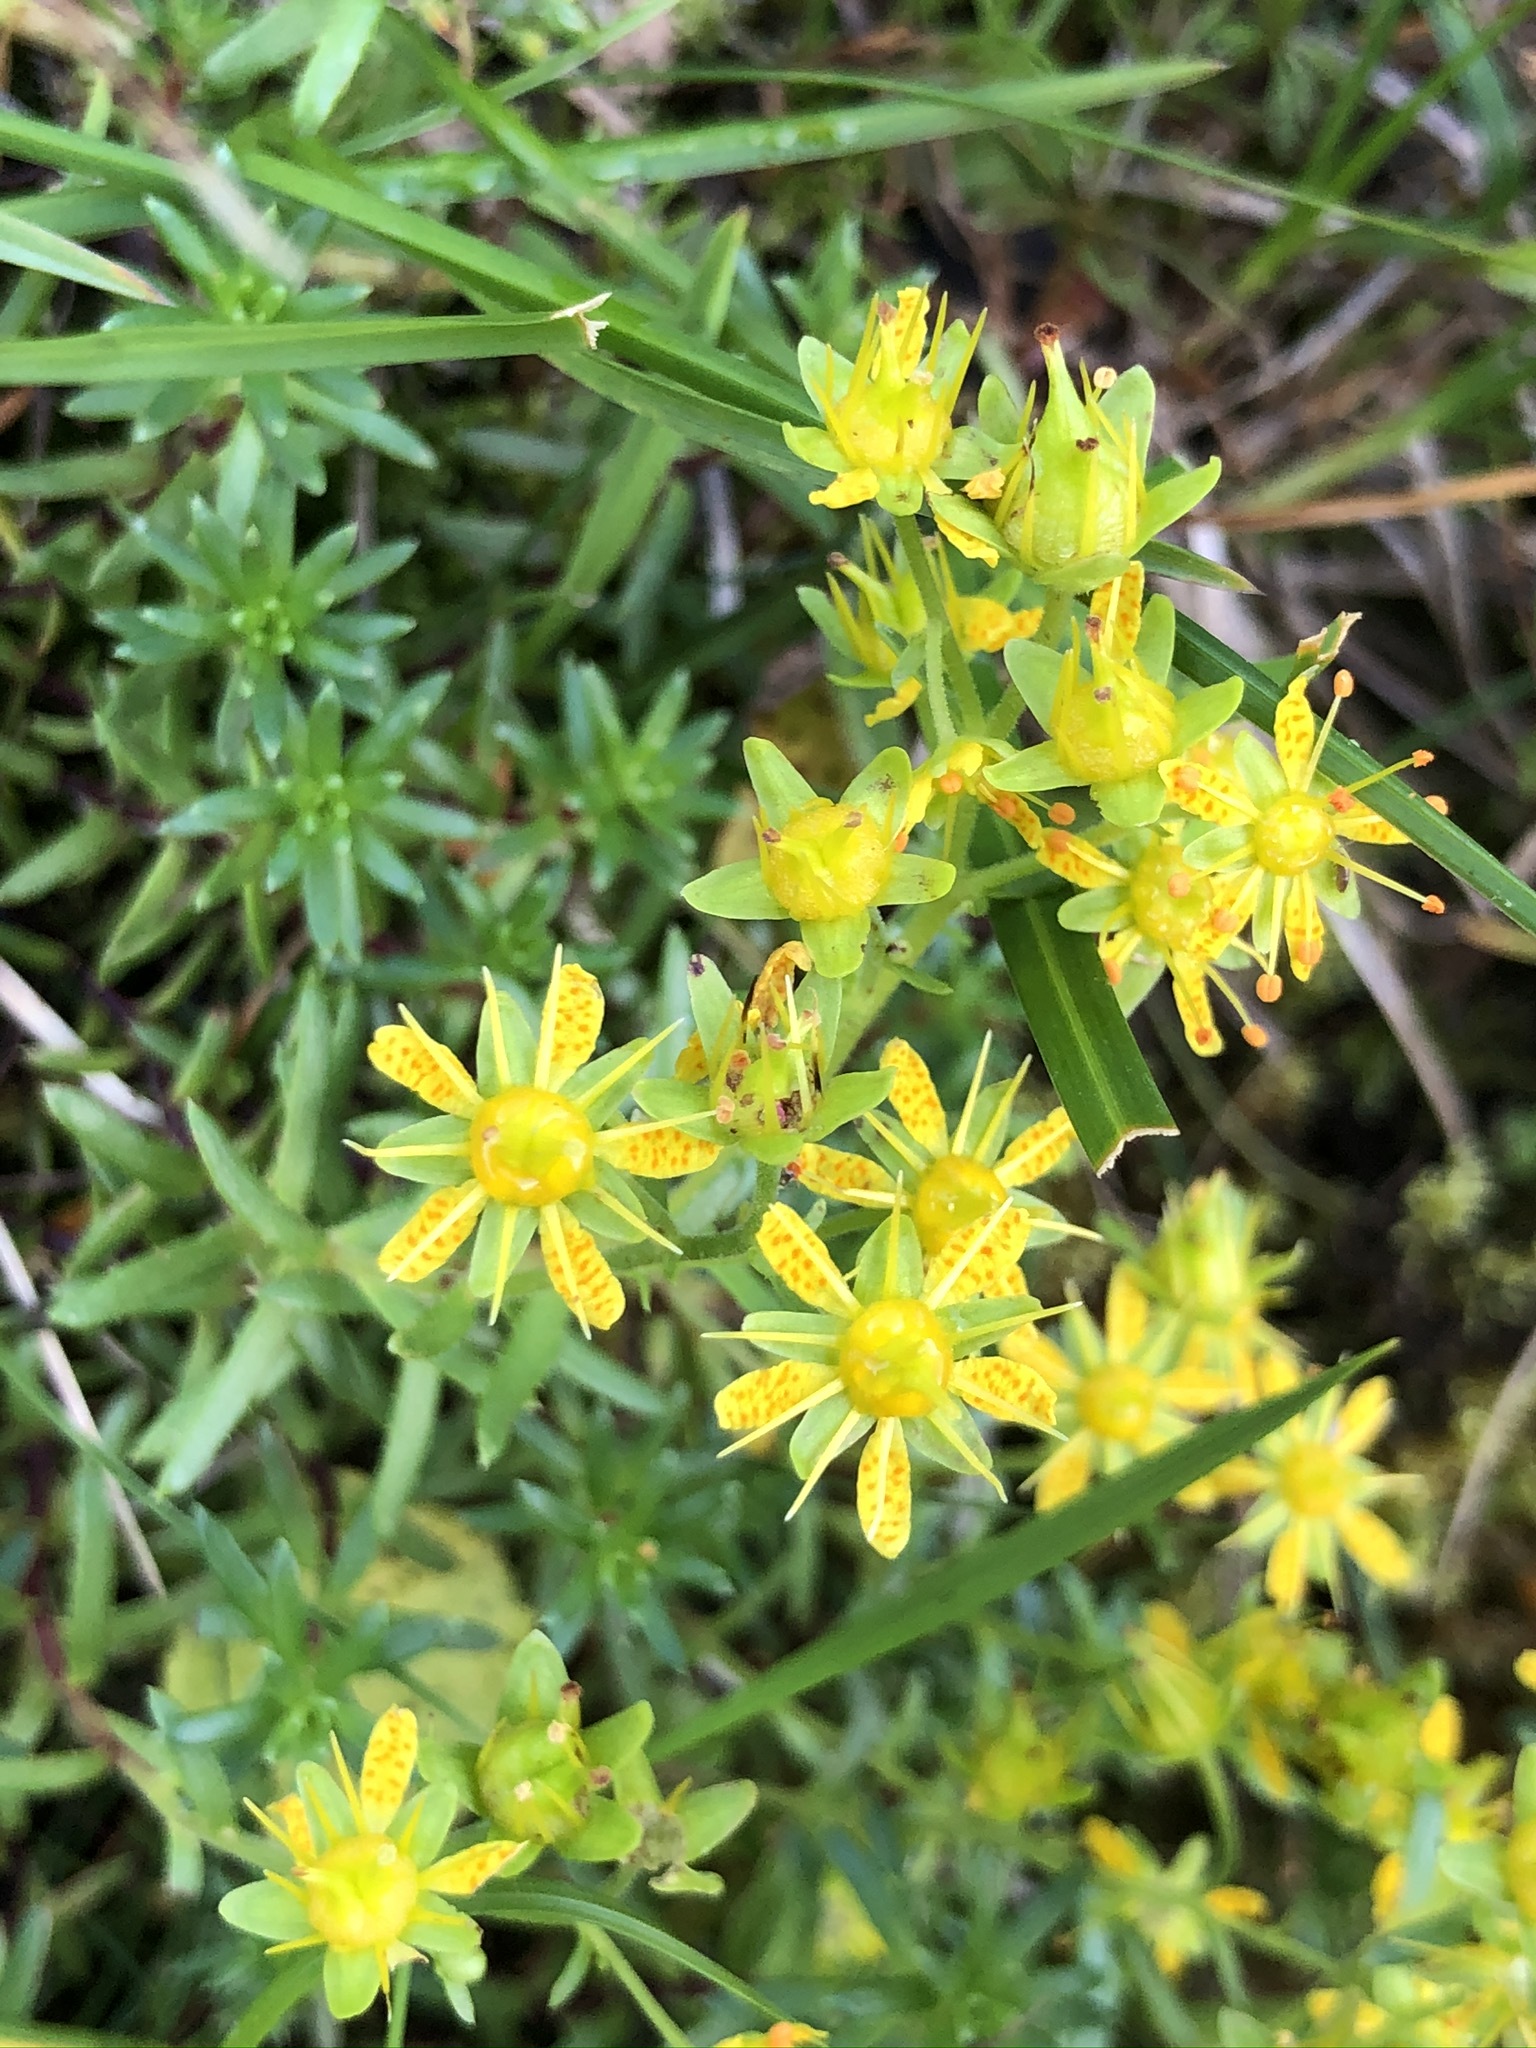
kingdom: Plantae
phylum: Tracheophyta
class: Magnoliopsida
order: Saxifragales
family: Saxifragaceae
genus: Saxifraga
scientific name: Saxifraga aizoides
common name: Yellow mountain saxifrage
